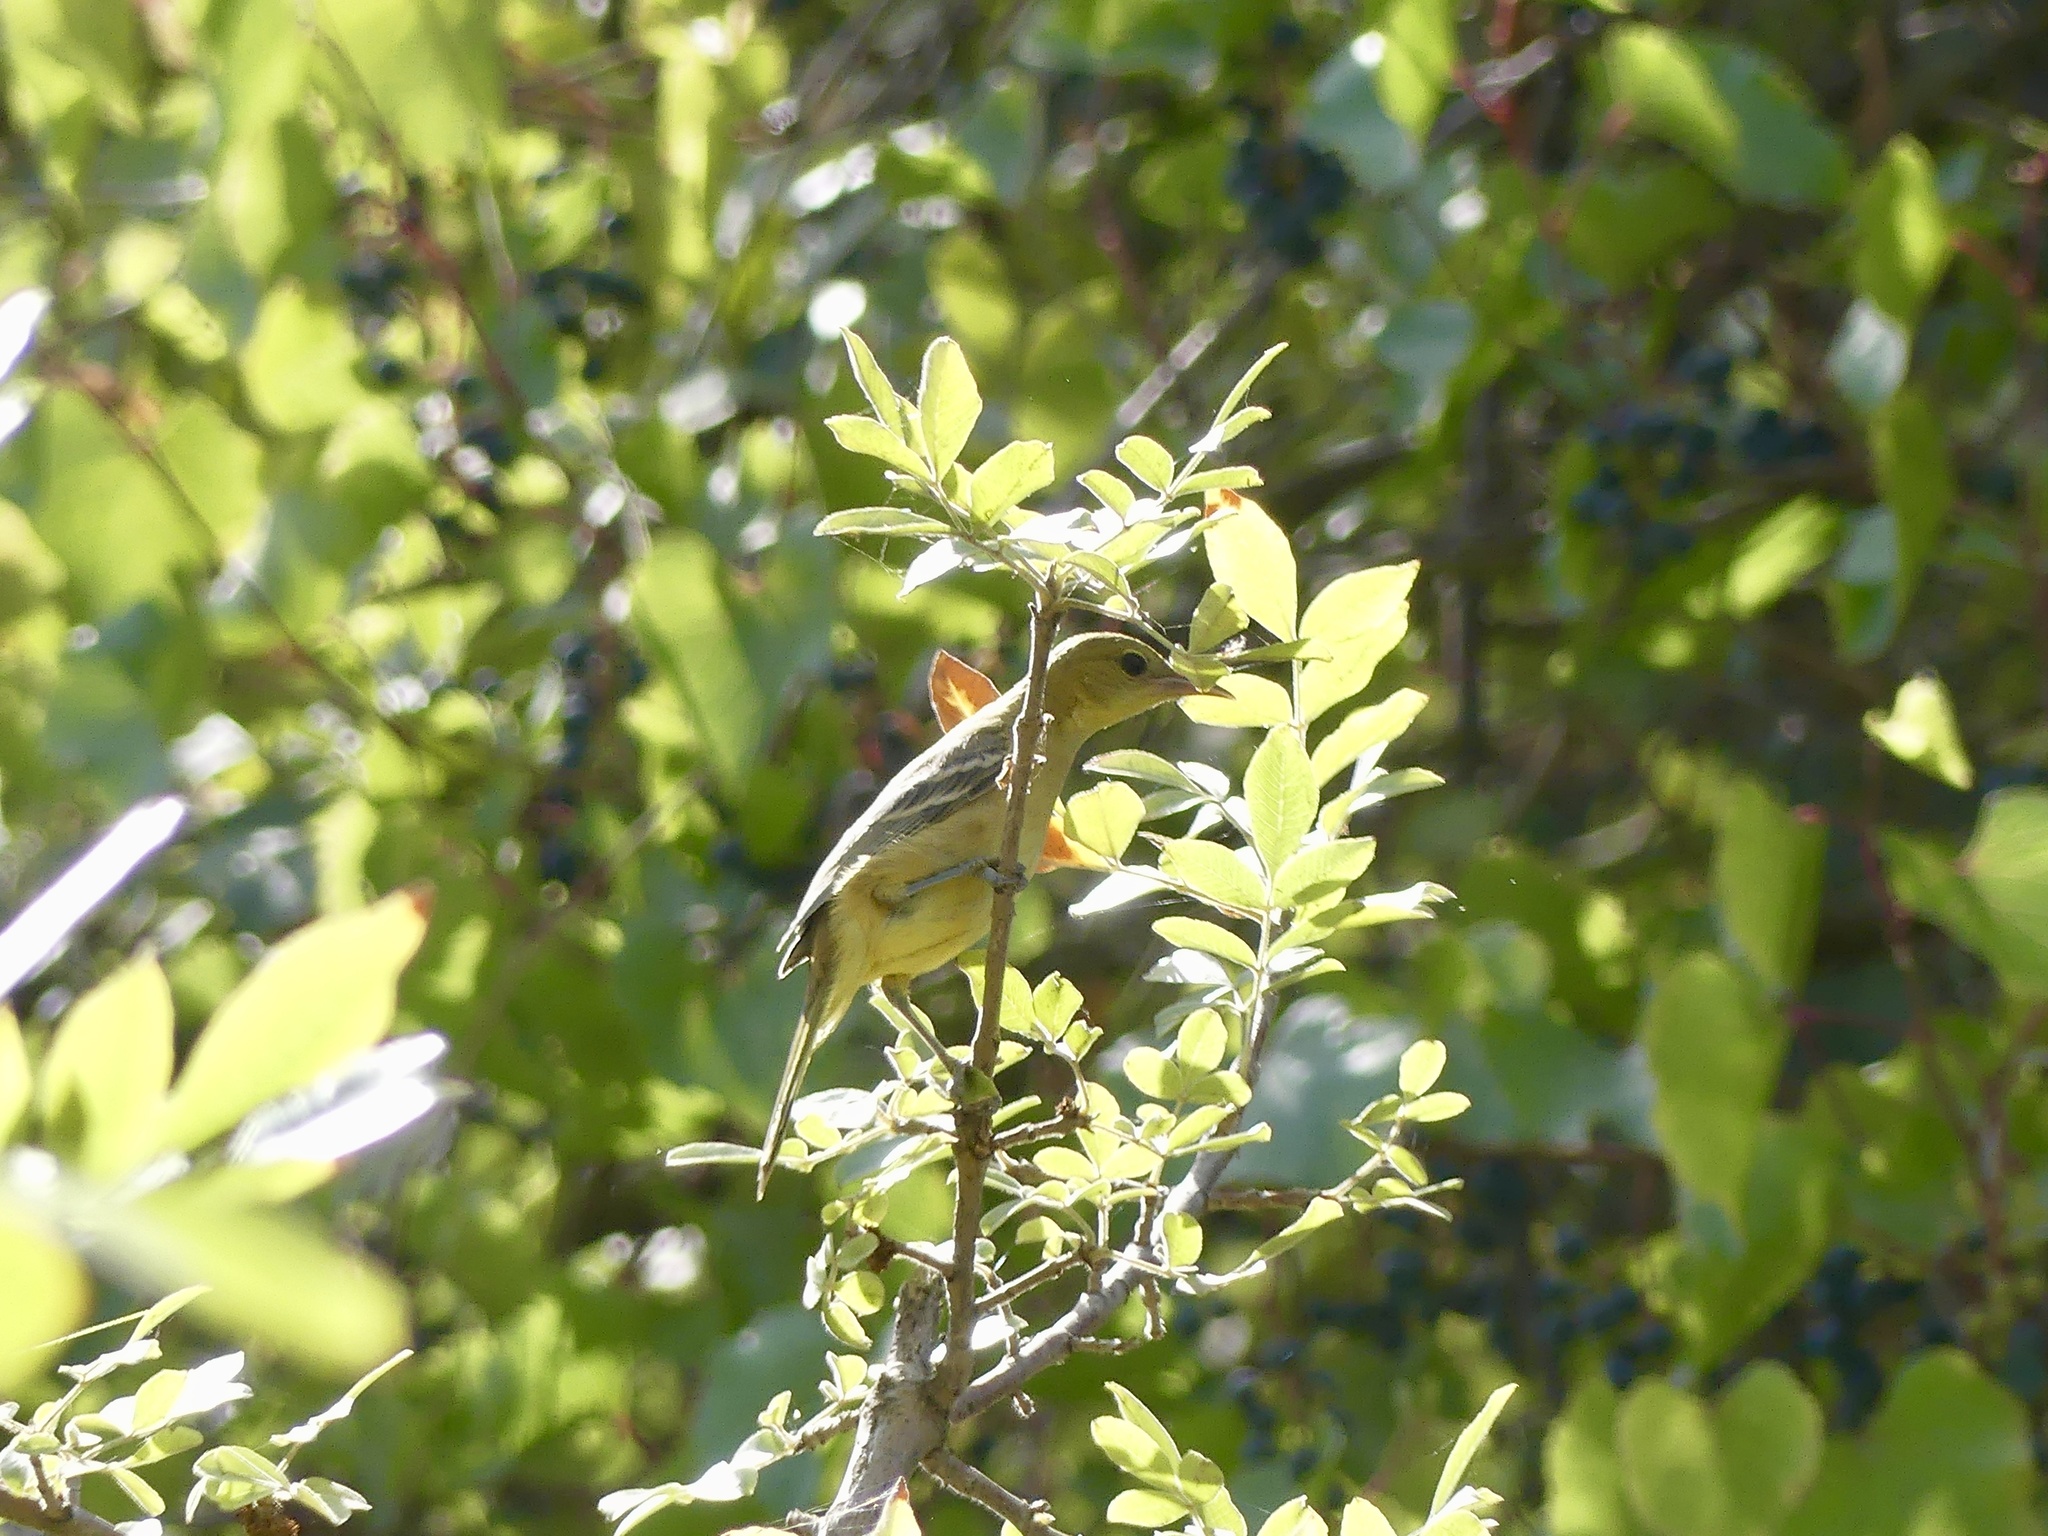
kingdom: Animalia
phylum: Chordata
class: Aves
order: Passeriformes
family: Icteridae
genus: Icterus
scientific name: Icterus bullockii
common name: Bullock's oriole
